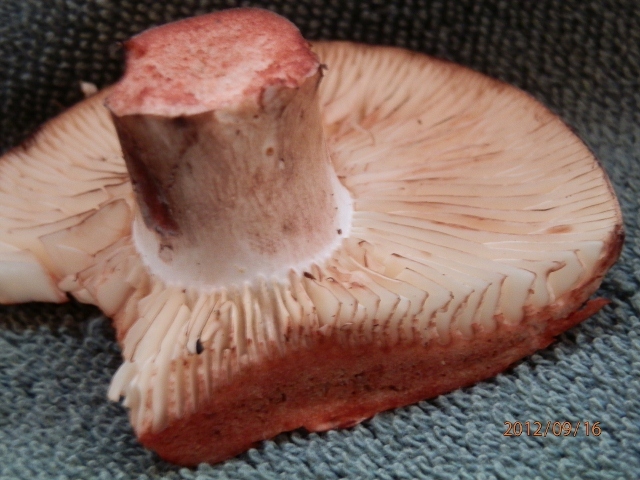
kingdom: Fungi
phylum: Basidiomycota
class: Agaricomycetes
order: Russulales
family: Russulaceae
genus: Russula
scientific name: Russula dissimulans
